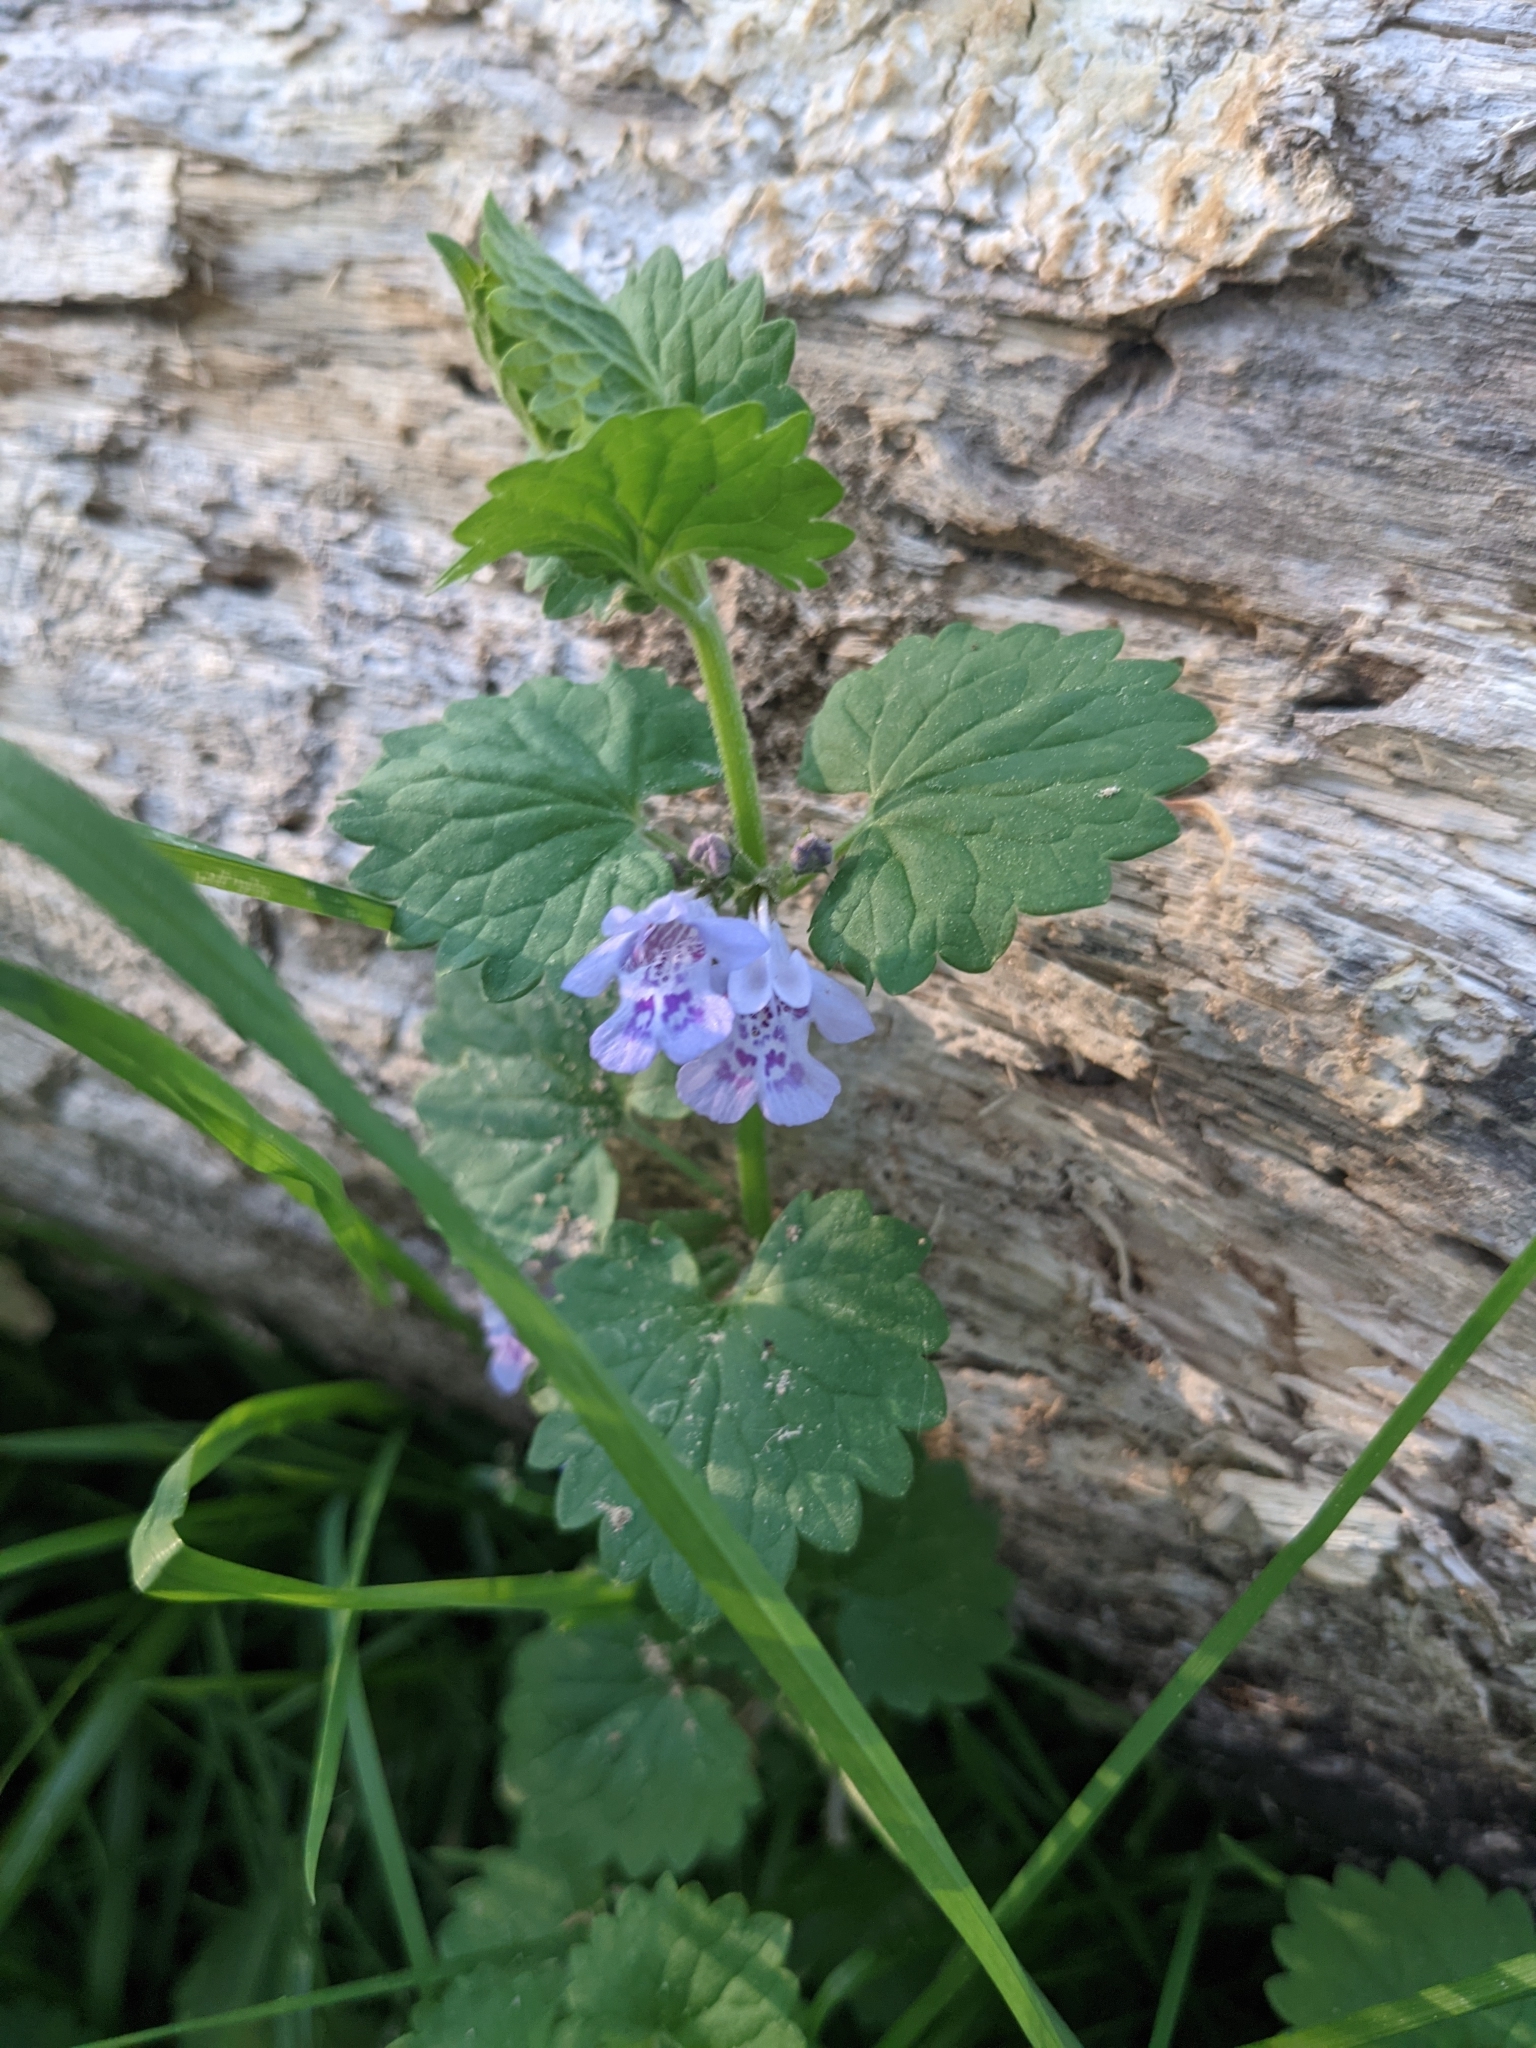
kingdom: Plantae
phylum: Tracheophyta
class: Magnoliopsida
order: Lamiales
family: Lamiaceae
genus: Glechoma
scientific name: Glechoma hederacea
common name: Ground ivy
